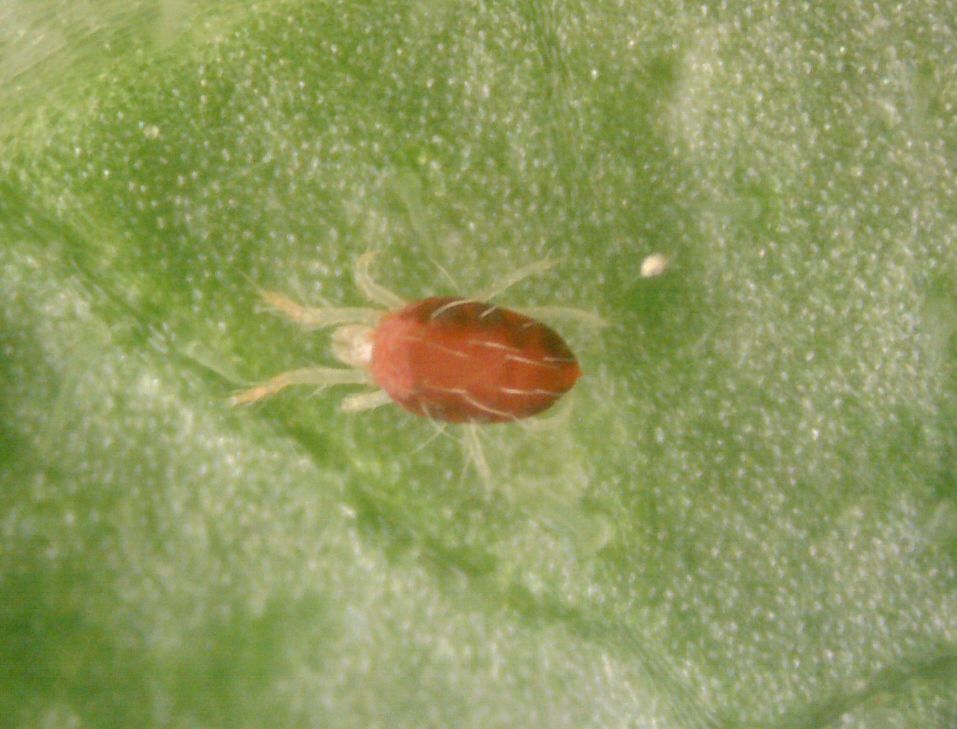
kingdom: Animalia
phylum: Arthropoda
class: Arachnida
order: Trombidiformes
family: Tetranychidae
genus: Tetranychus
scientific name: Tetranychus urticae
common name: Carmine spider mite
